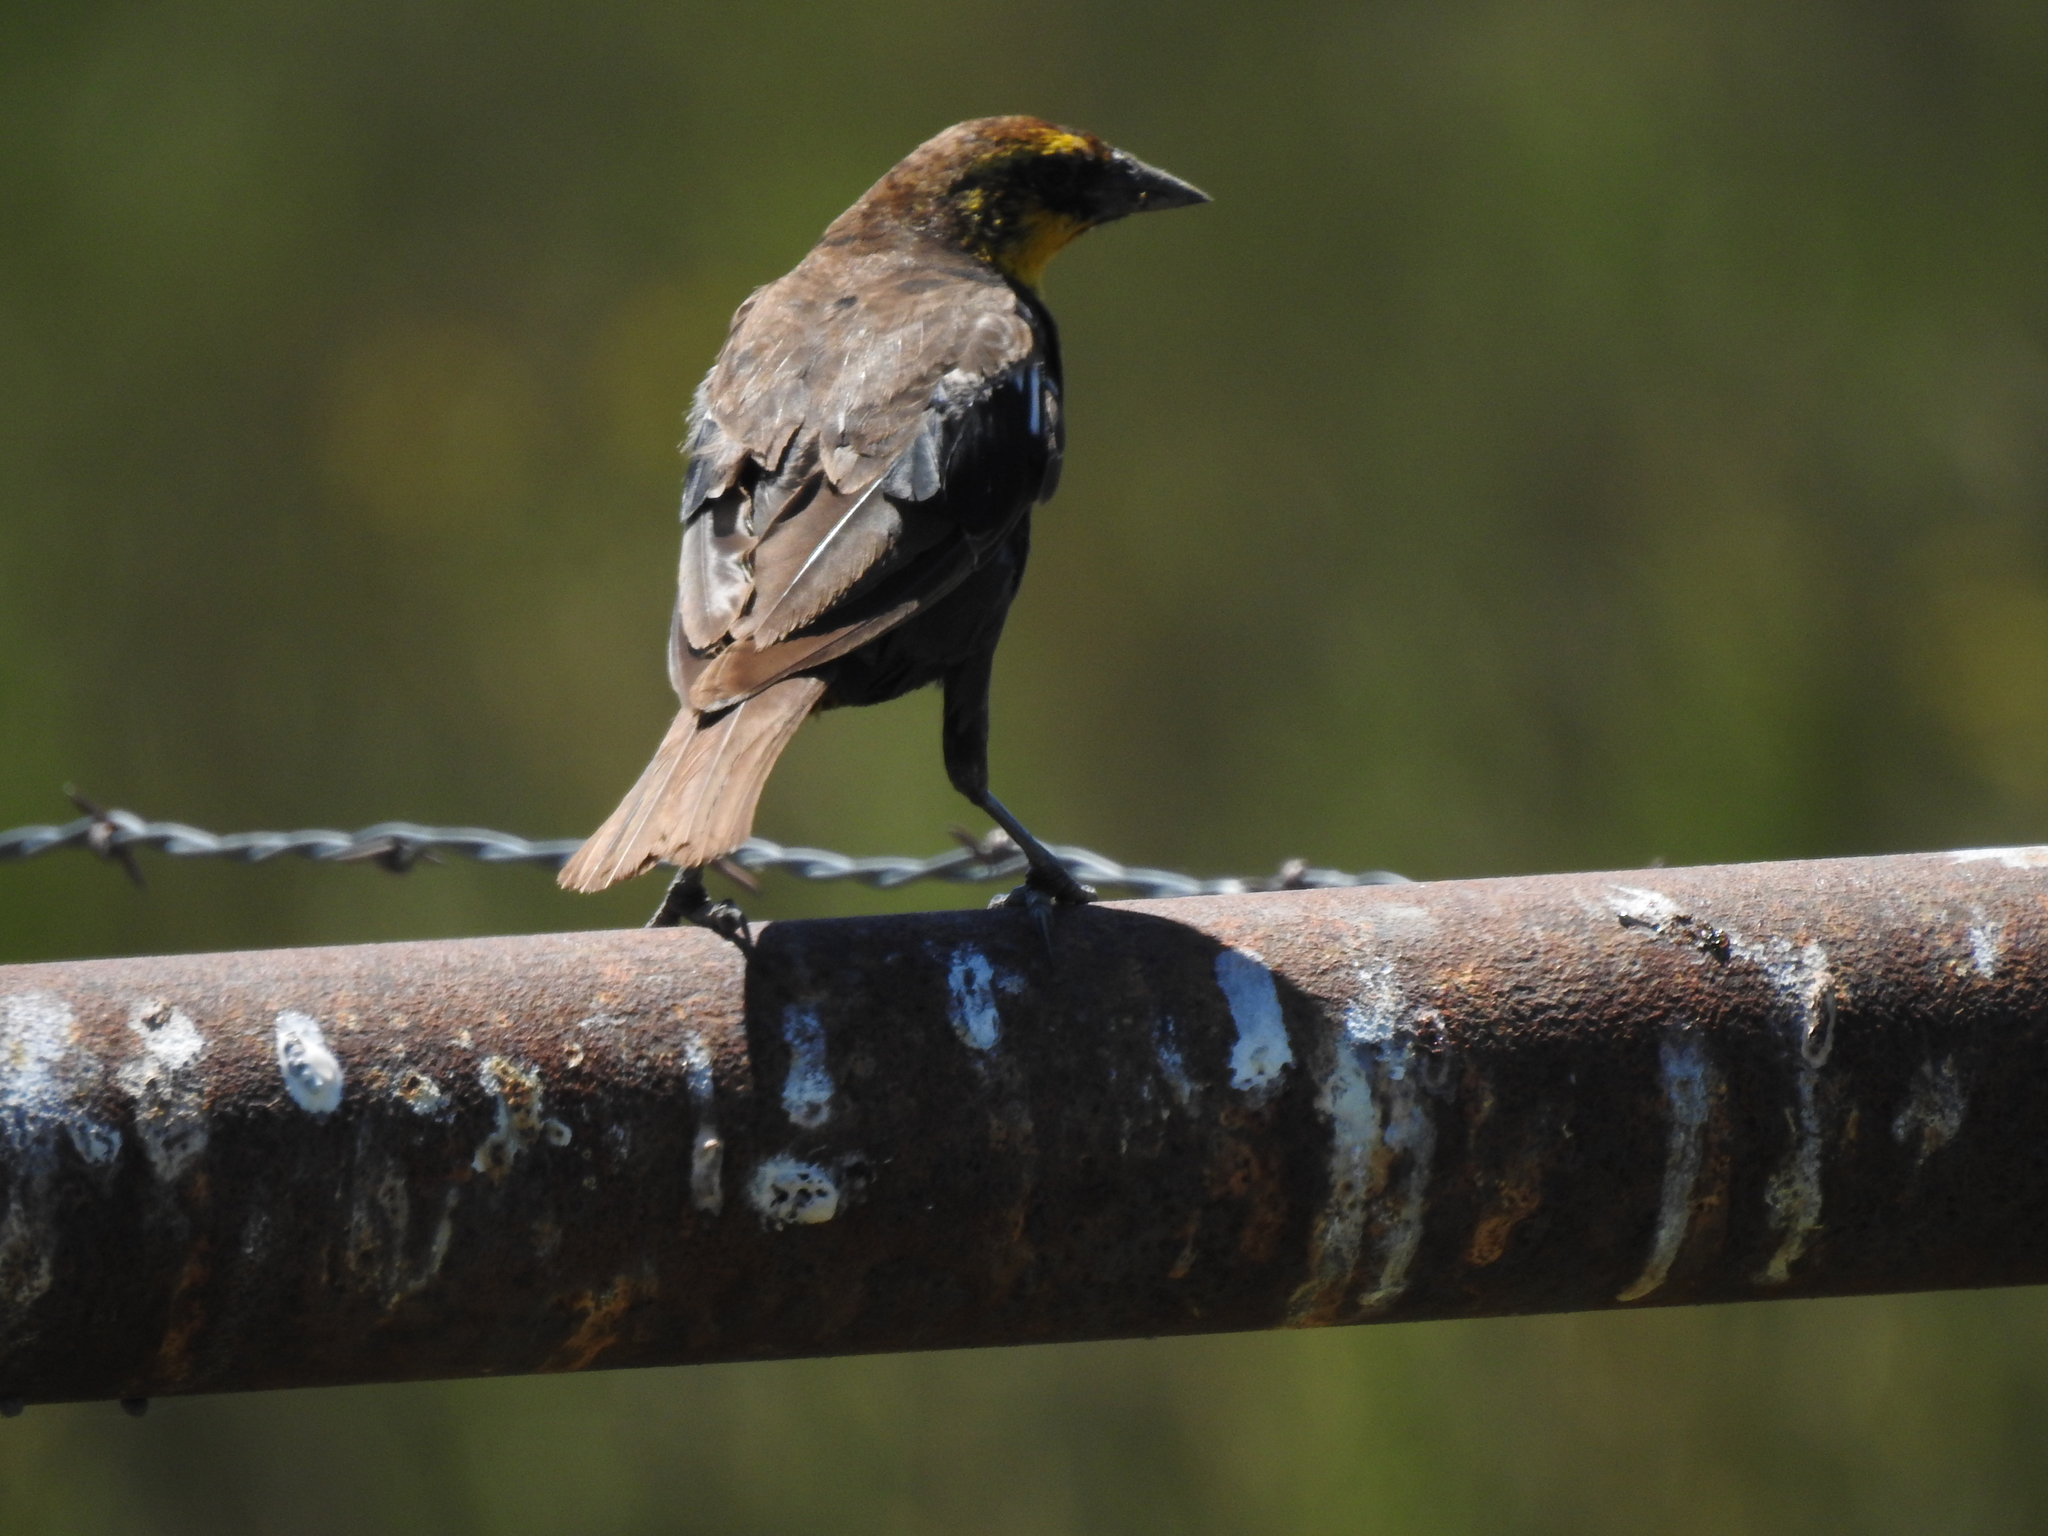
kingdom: Animalia
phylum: Chordata
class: Aves
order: Passeriformes
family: Icteridae
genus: Xanthocephalus
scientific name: Xanthocephalus xanthocephalus
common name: Yellow-headed blackbird
